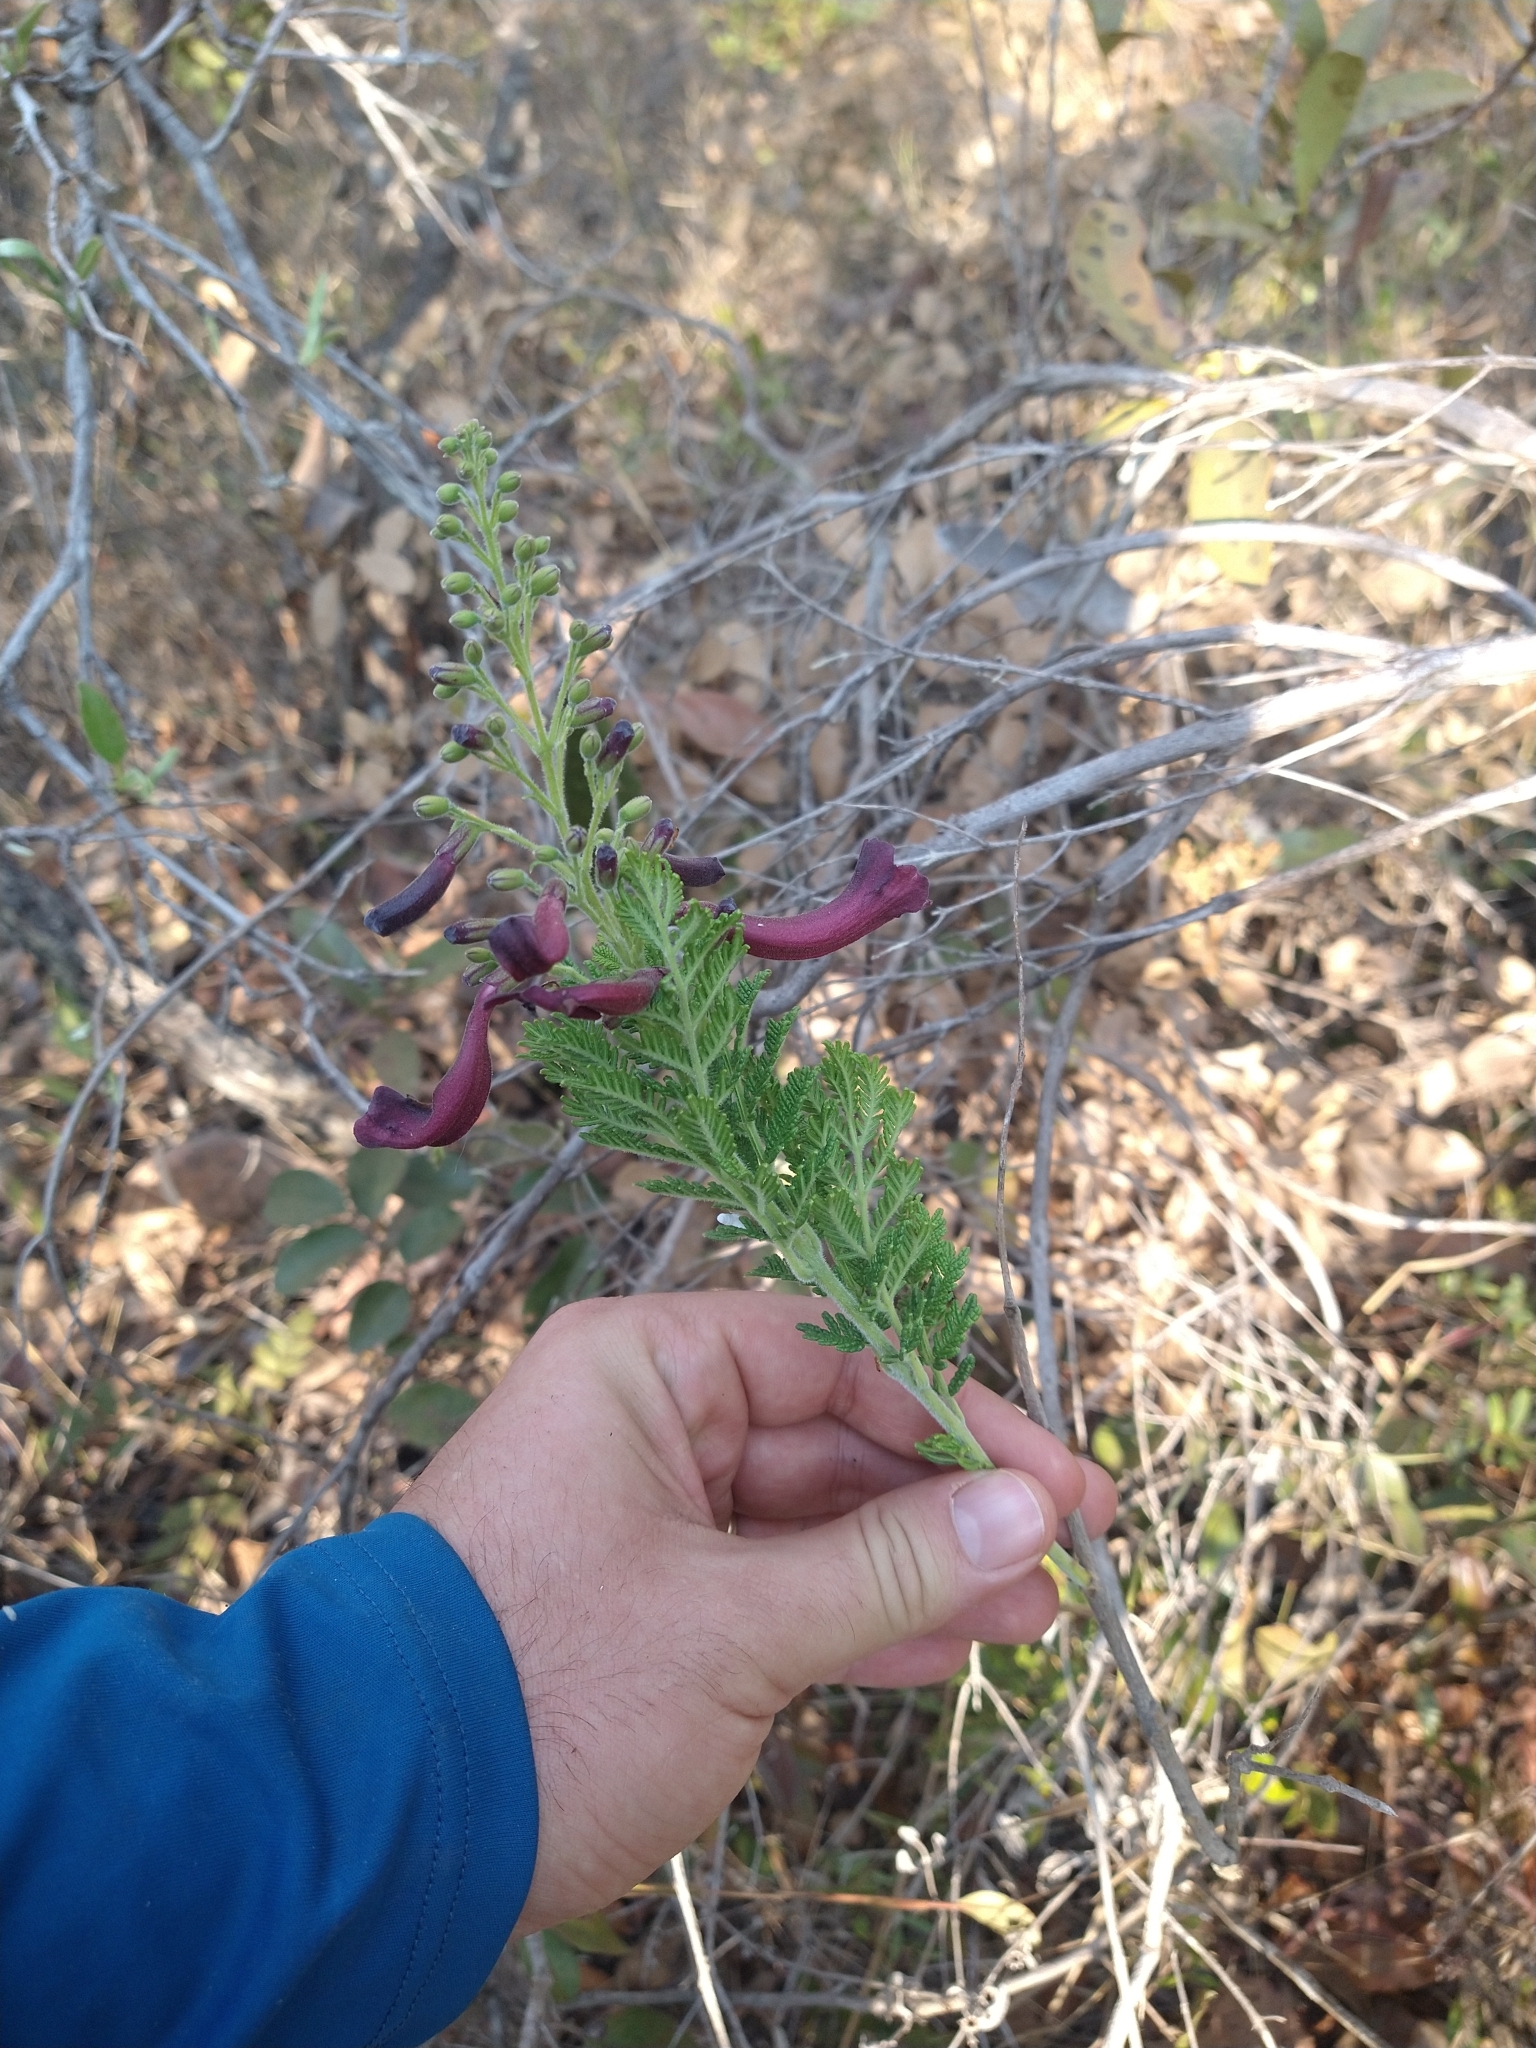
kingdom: Plantae
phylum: Tracheophyta
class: Magnoliopsida
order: Lamiales
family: Bignoniaceae
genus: Jacaranda
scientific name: Jacaranda ulei
